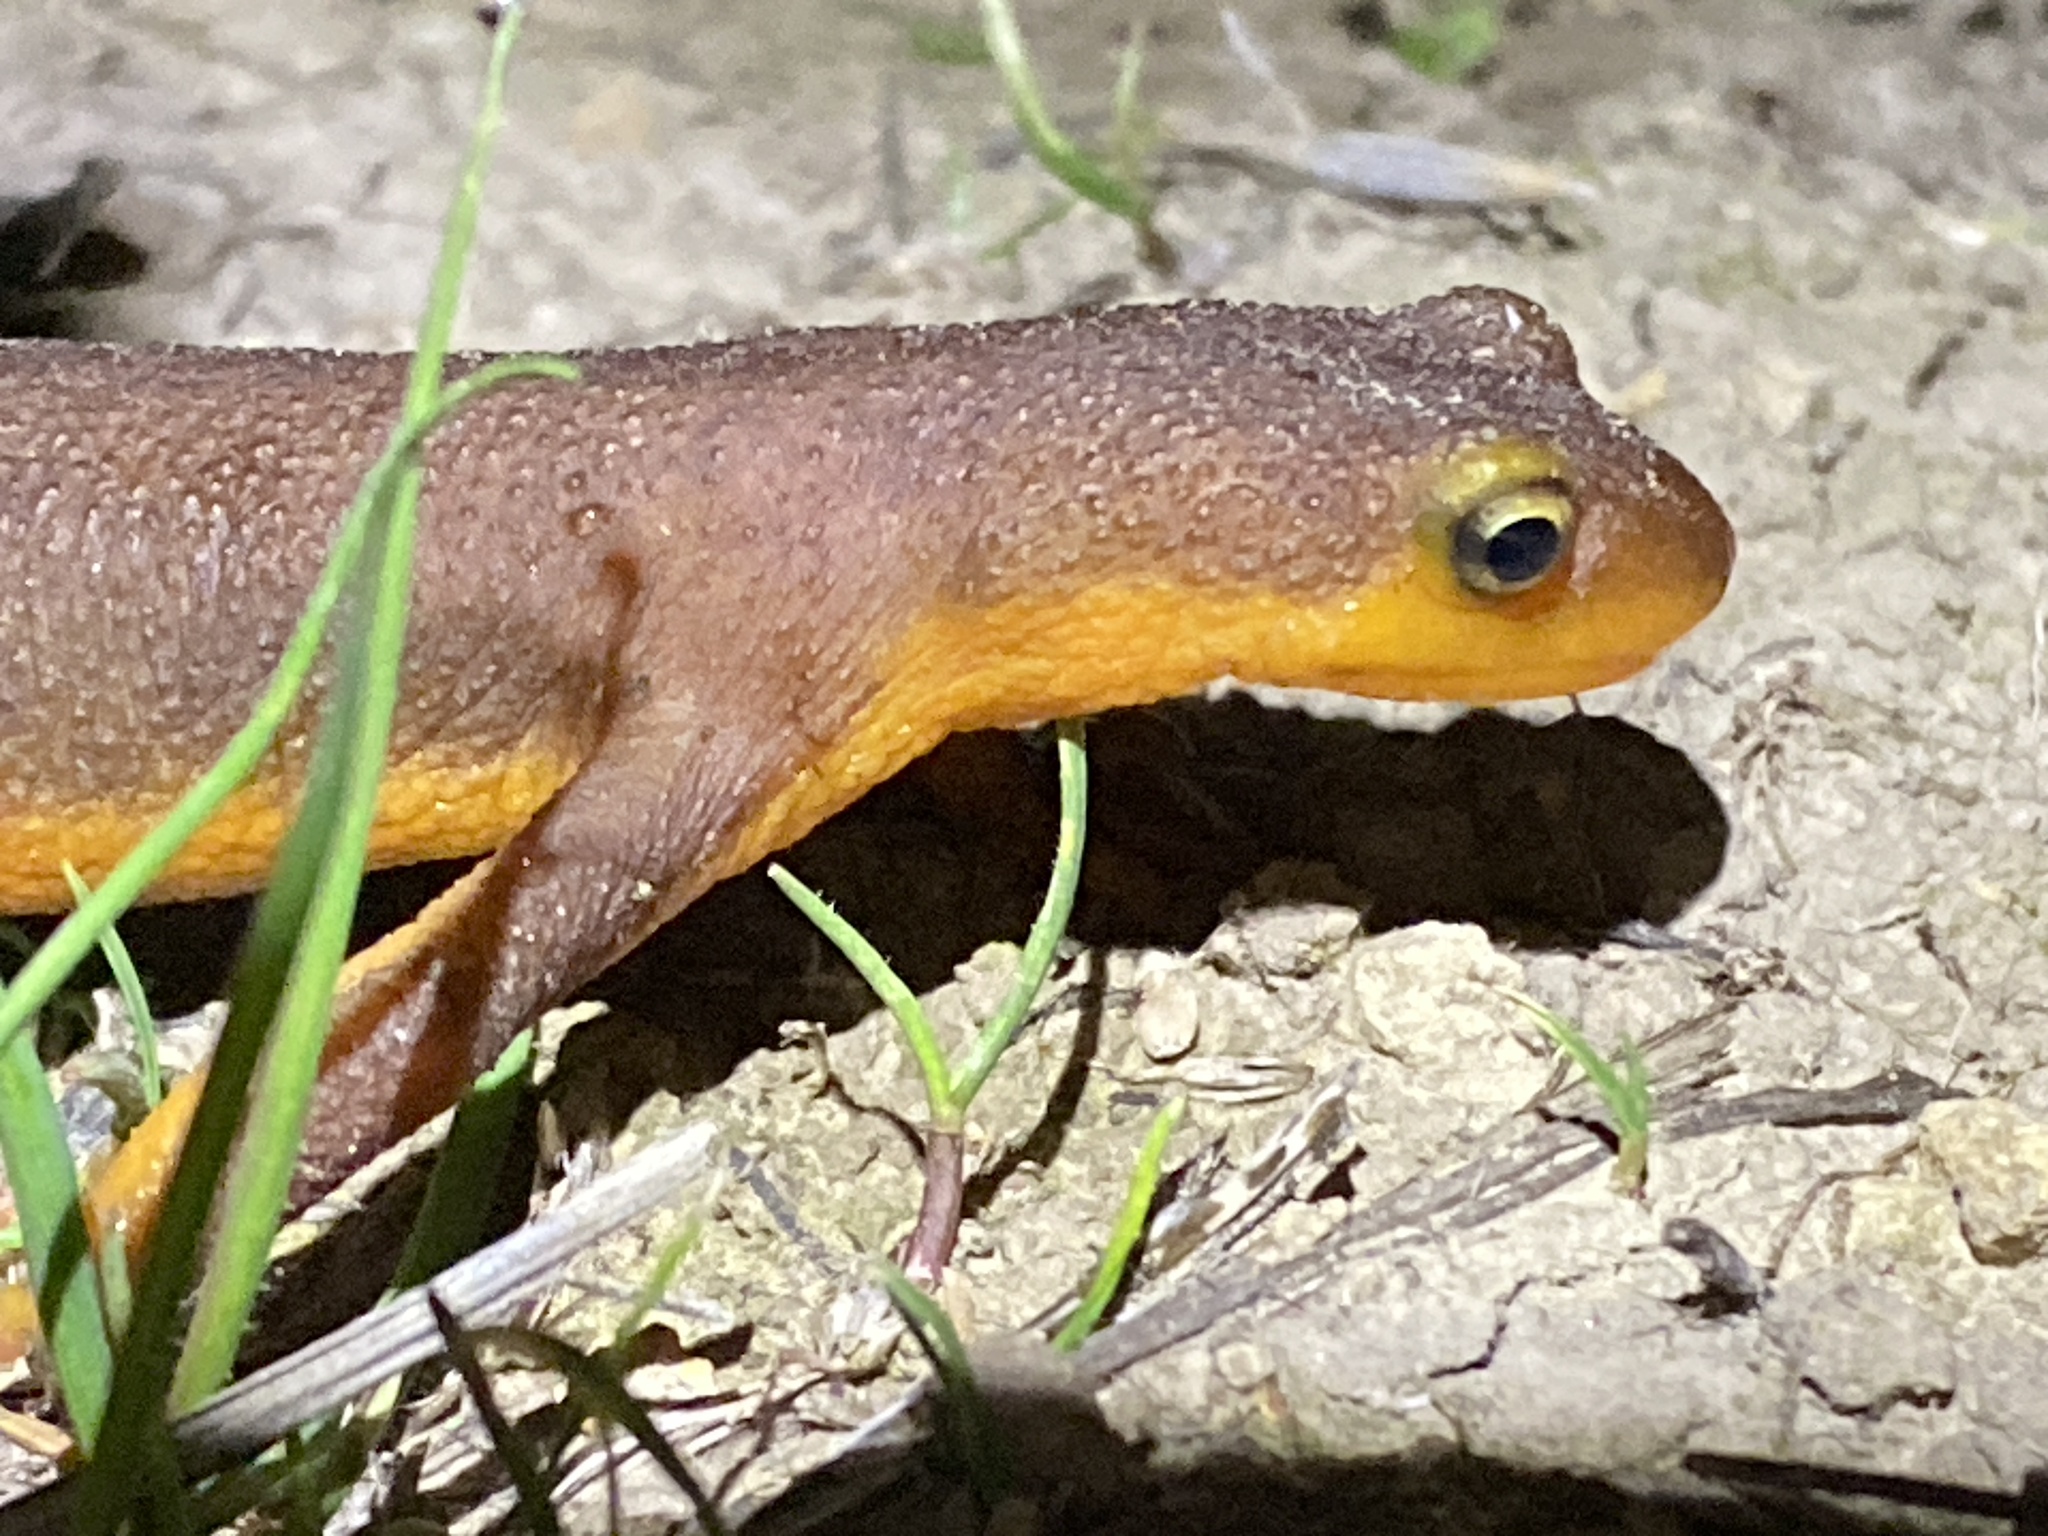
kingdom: Animalia
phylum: Chordata
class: Amphibia
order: Caudata
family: Salamandridae
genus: Taricha
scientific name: Taricha torosa
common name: California newt
